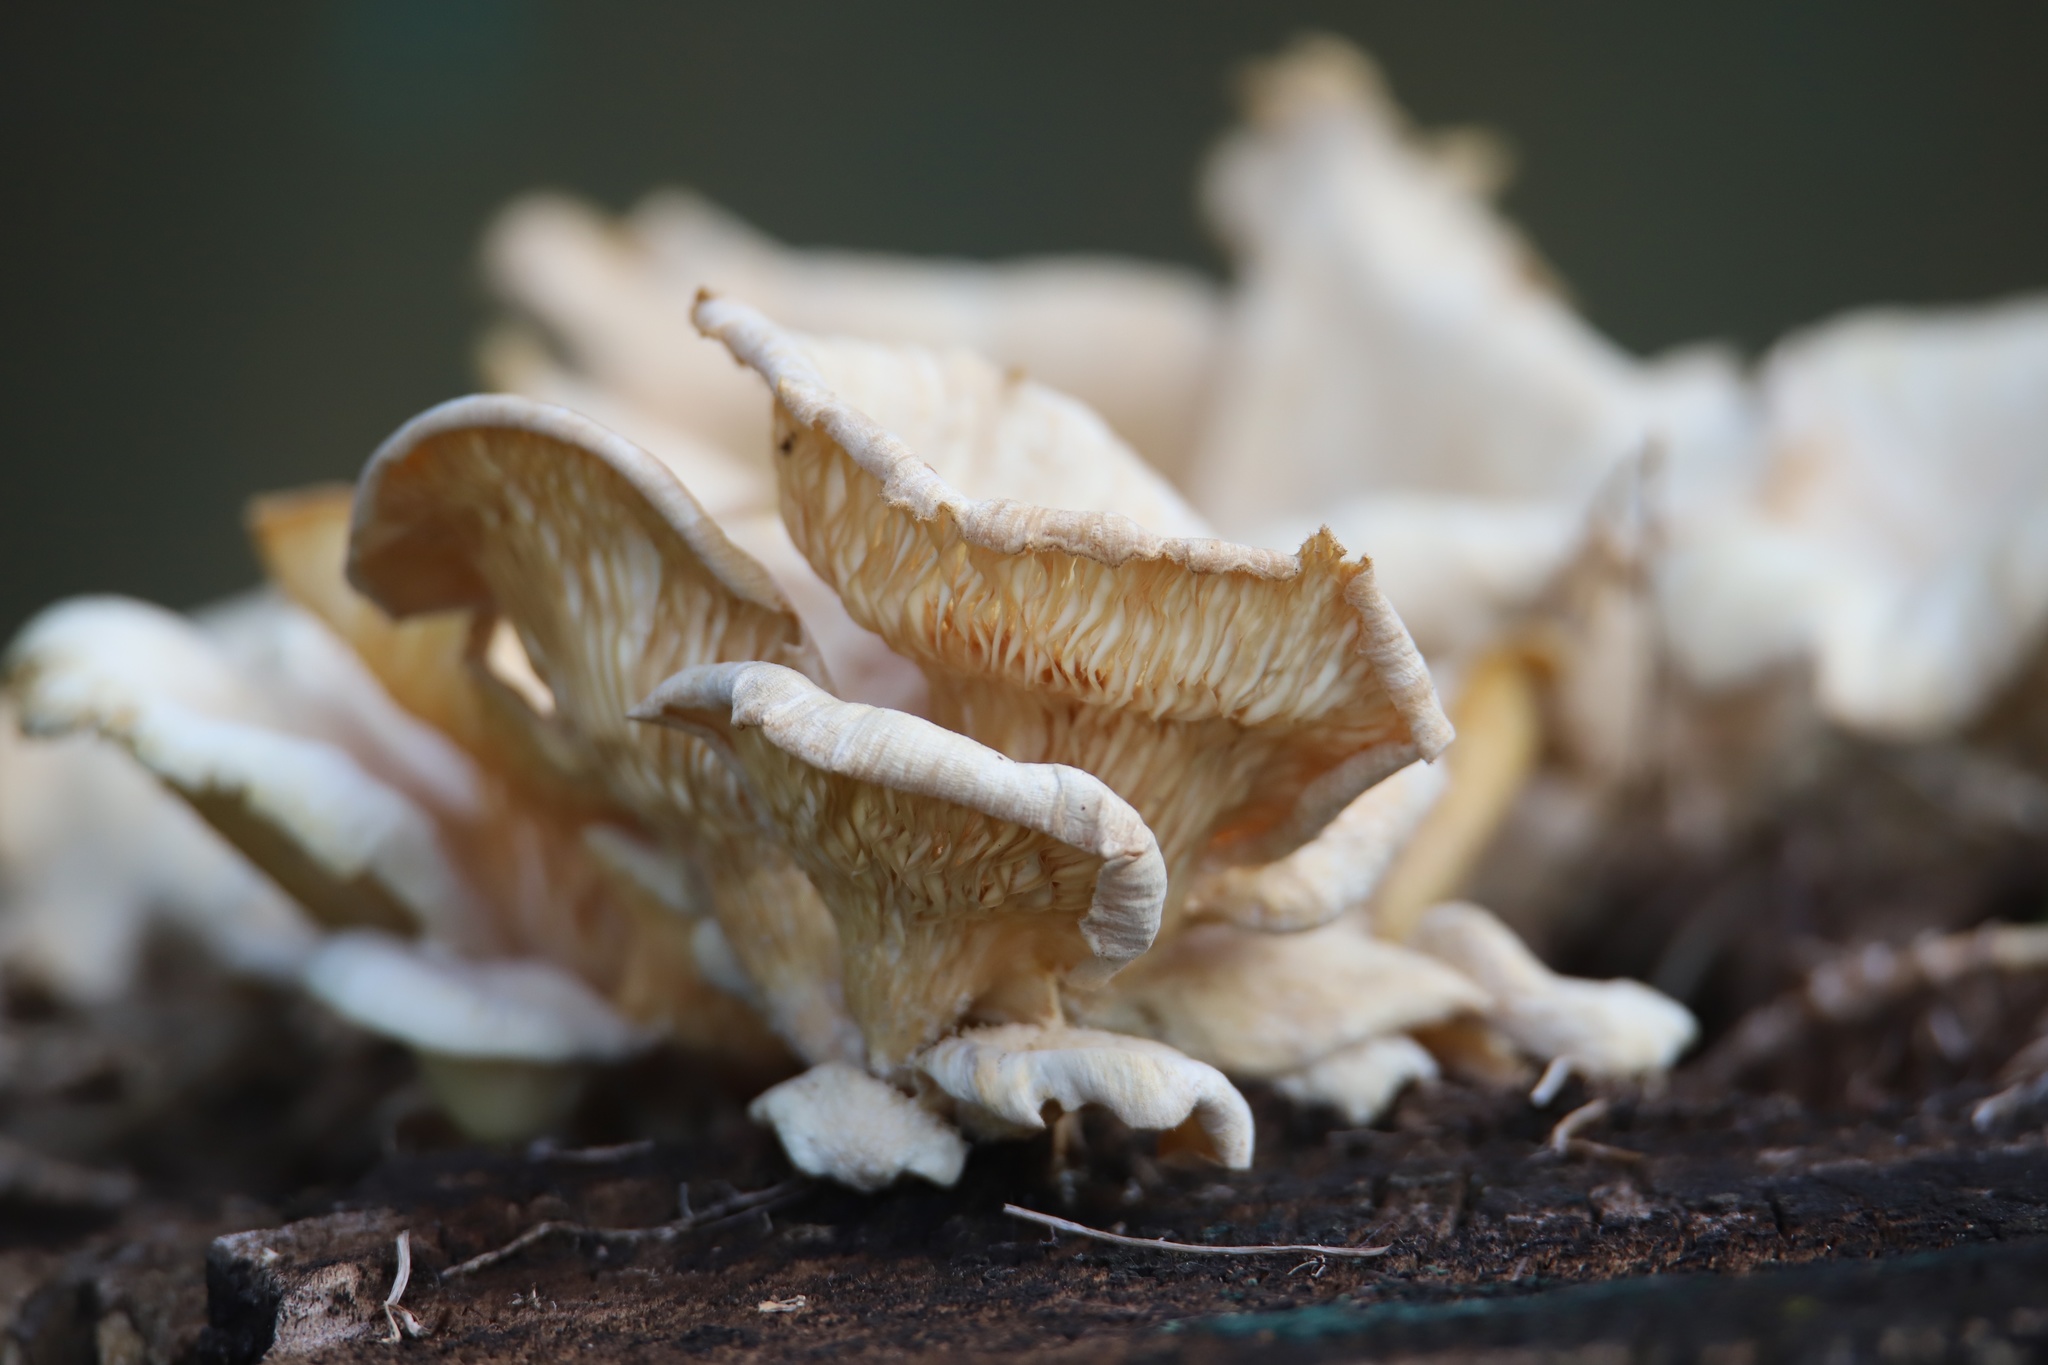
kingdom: Fungi
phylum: Basidiomycota
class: Agaricomycetes
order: Agaricales
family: Pleurotaceae
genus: Pleurotus
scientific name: Pleurotus pulmonarius
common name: Pale oyster
